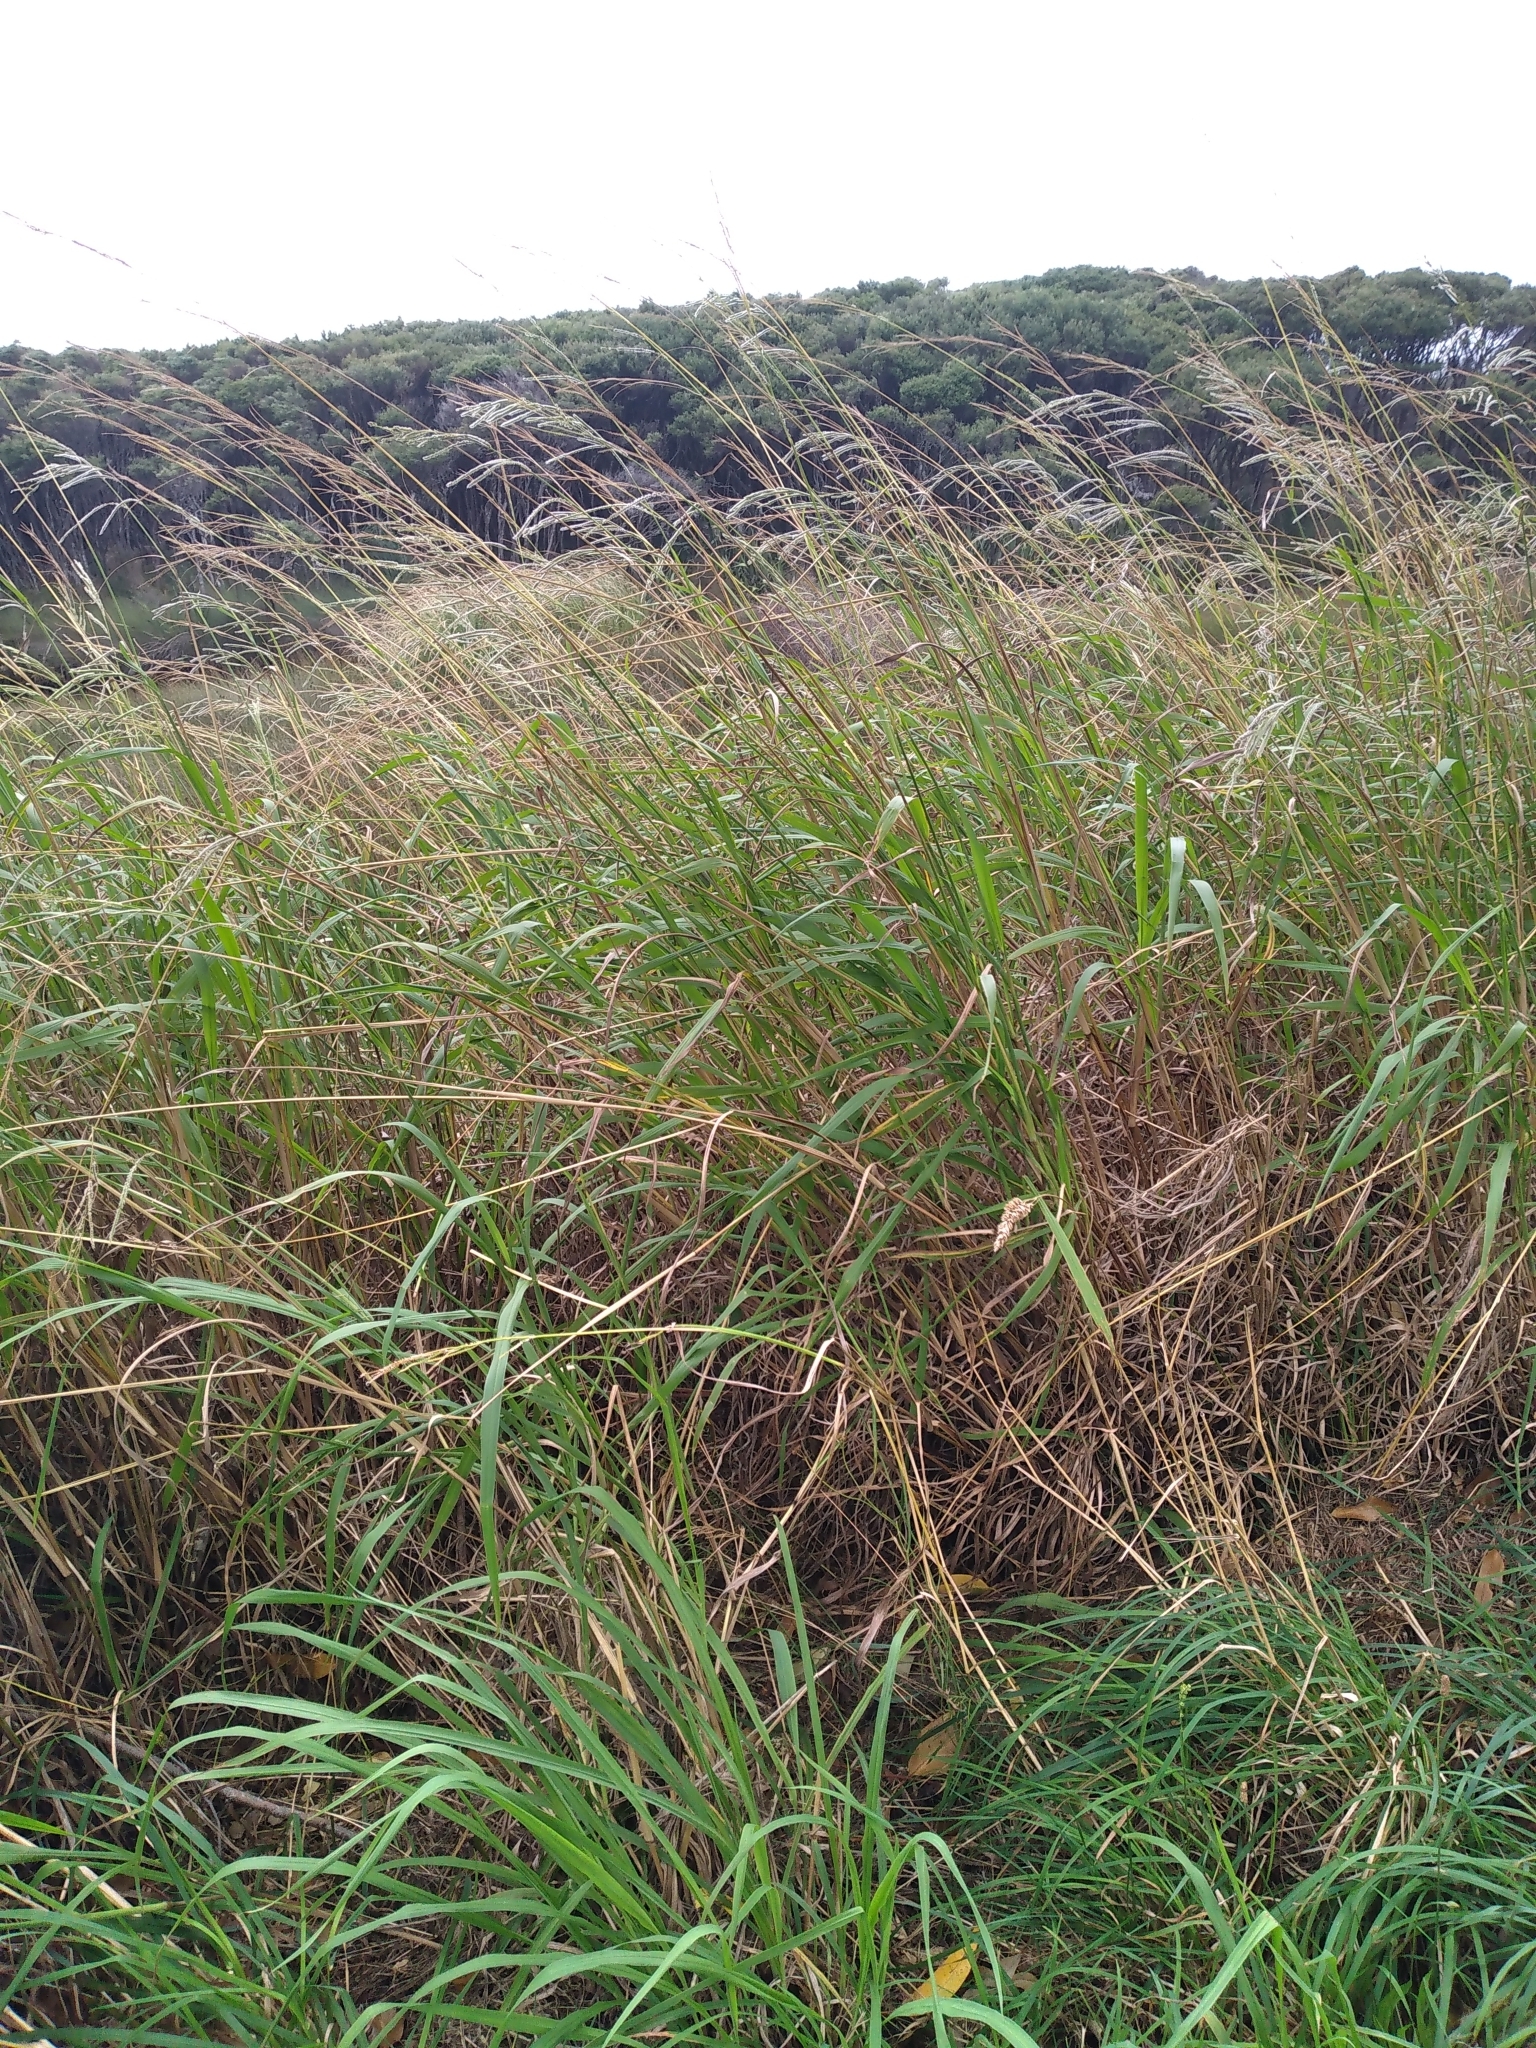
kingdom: Plantae
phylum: Tracheophyta
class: Liliopsida
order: Poales
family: Poaceae
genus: Paspalum
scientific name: Paspalum urvillei
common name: Vasey's grass
